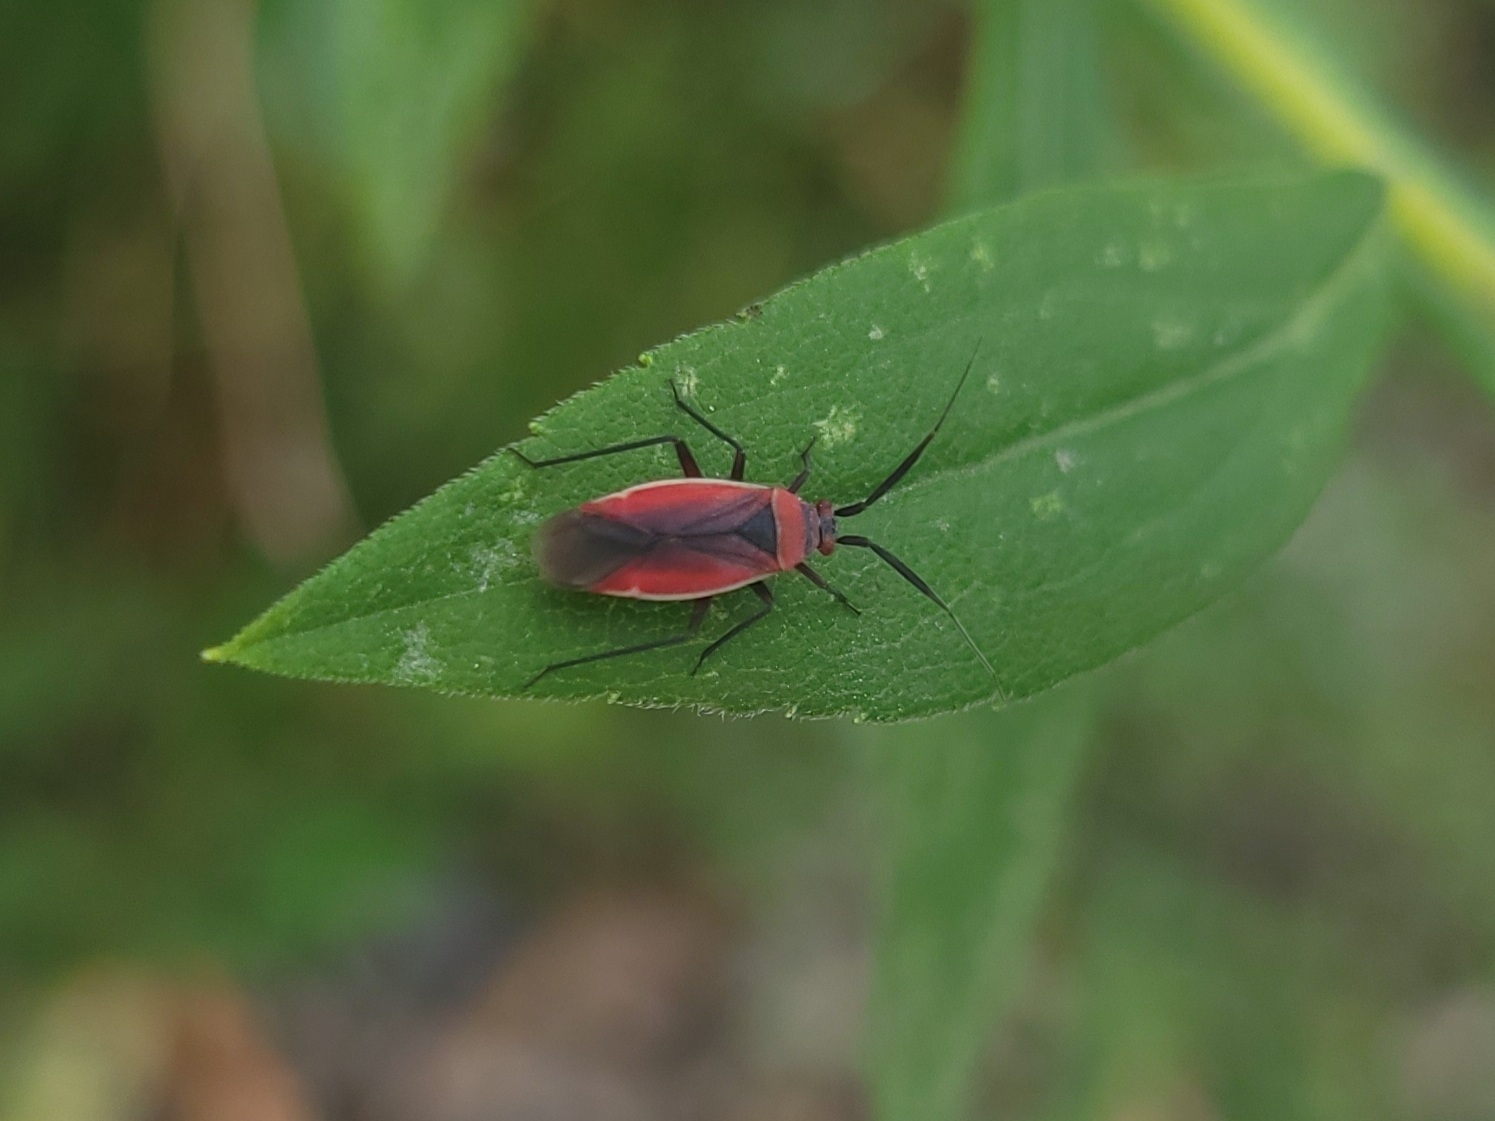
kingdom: Animalia
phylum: Arthropoda
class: Insecta
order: Hemiptera
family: Miridae
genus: Lopidea
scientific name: Lopidea instabilis
